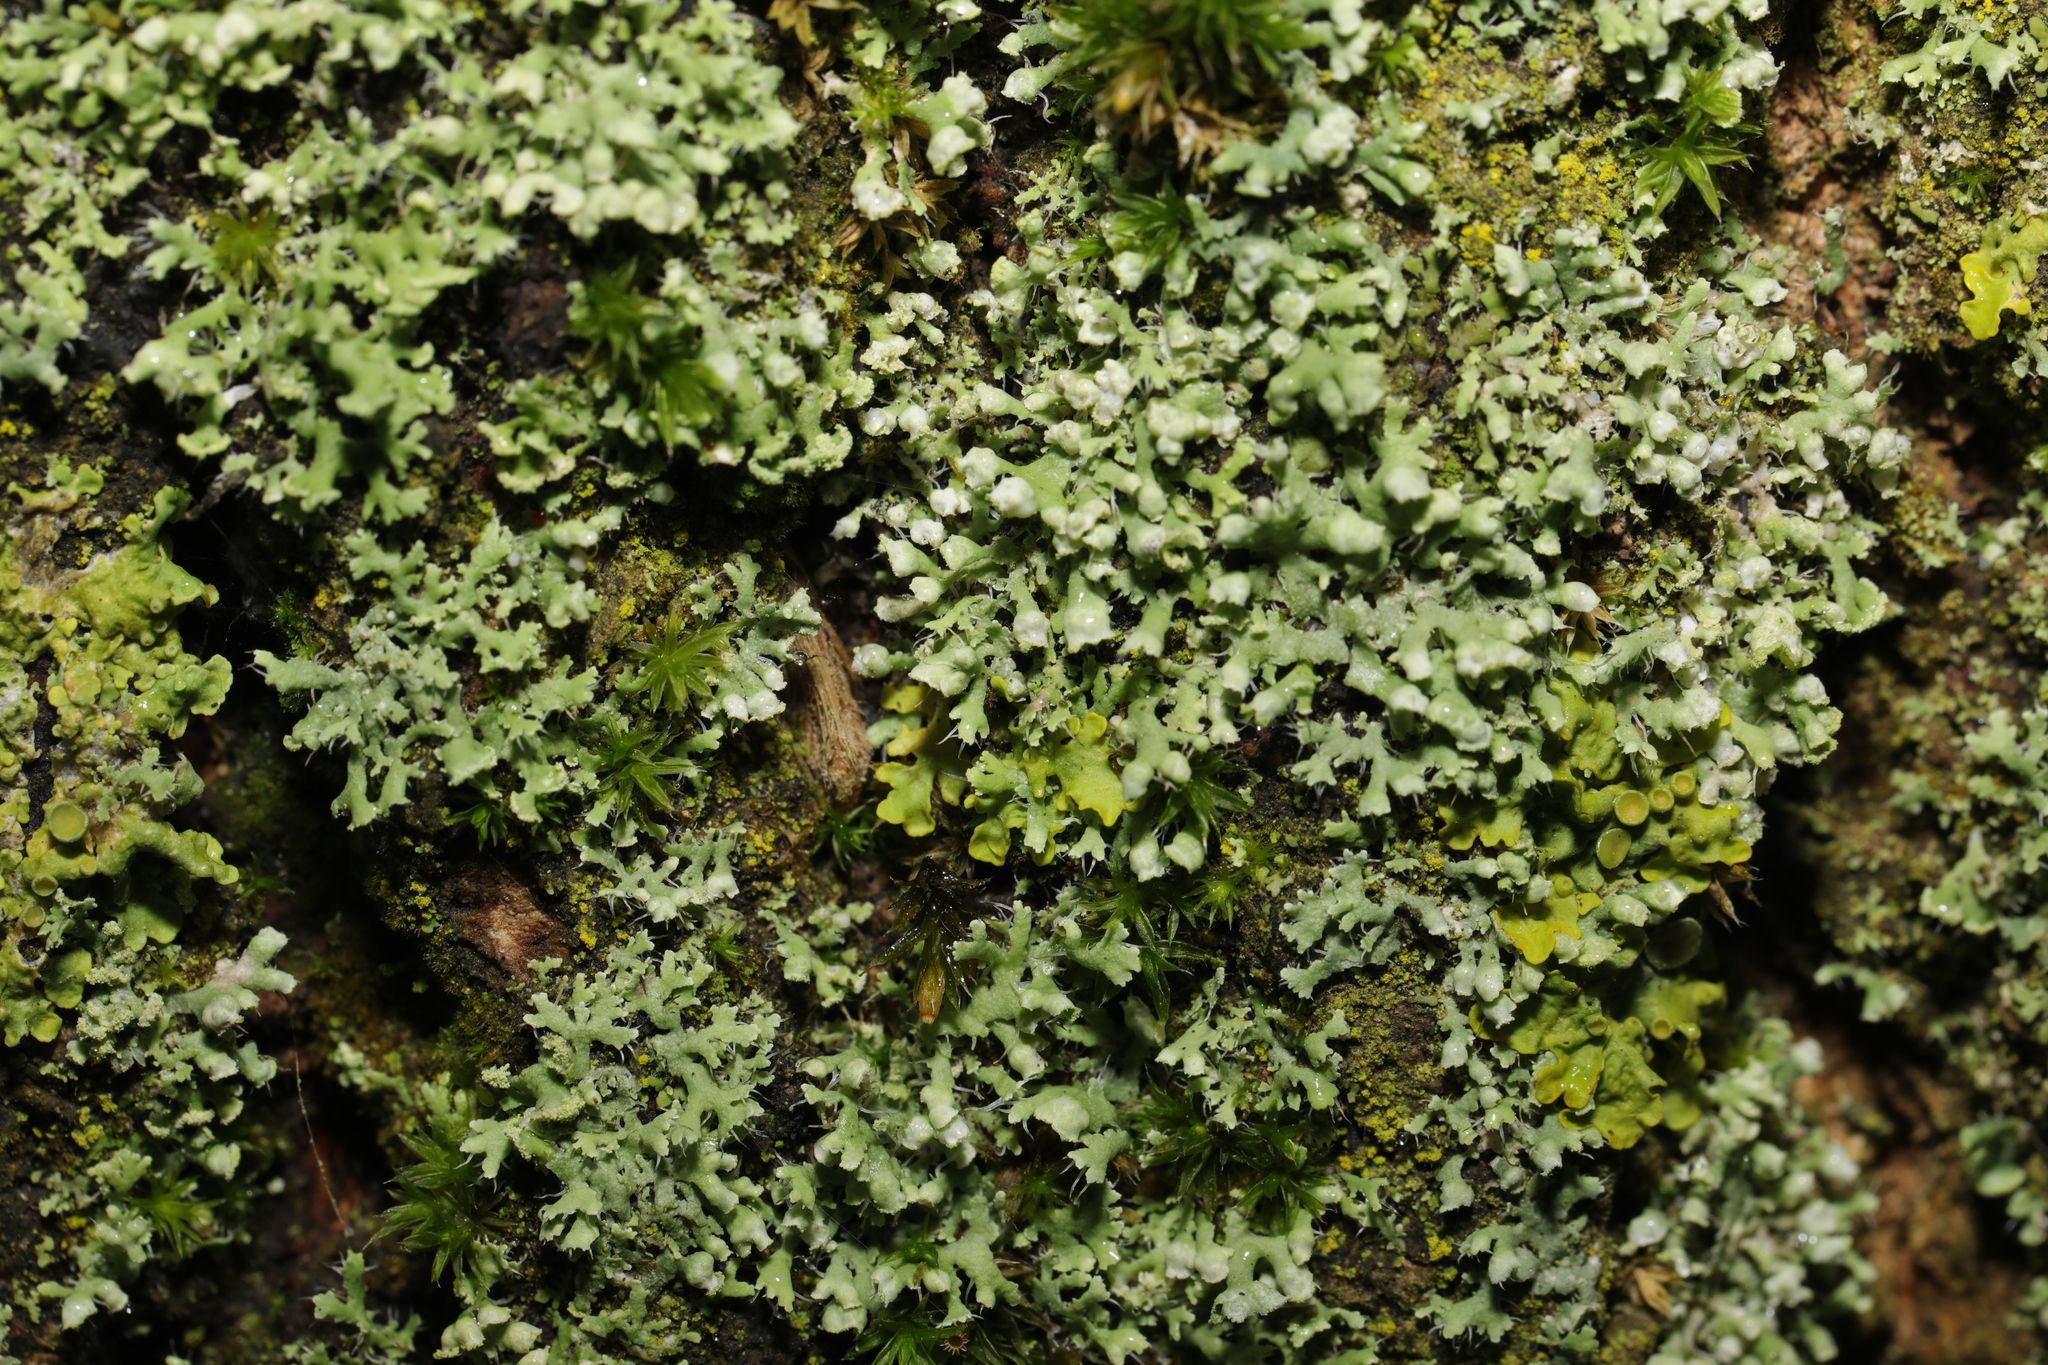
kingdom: Fungi
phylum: Ascomycota
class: Lecanoromycetes
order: Caliciales
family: Physciaceae
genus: Physcia
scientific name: Physcia adscendens
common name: Hooded rosette lichen
